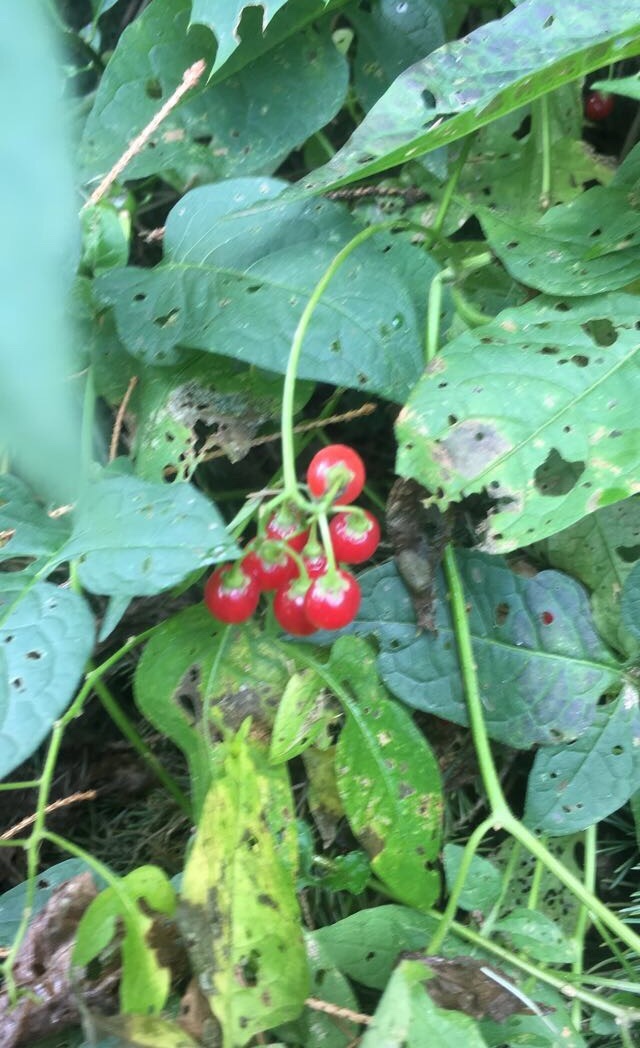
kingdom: Plantae
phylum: Tracheophyta
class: Magnoliopsida
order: Solanales
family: Solanaceae
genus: Solanum
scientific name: Solanum dulcamara
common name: Climbing nightshade
